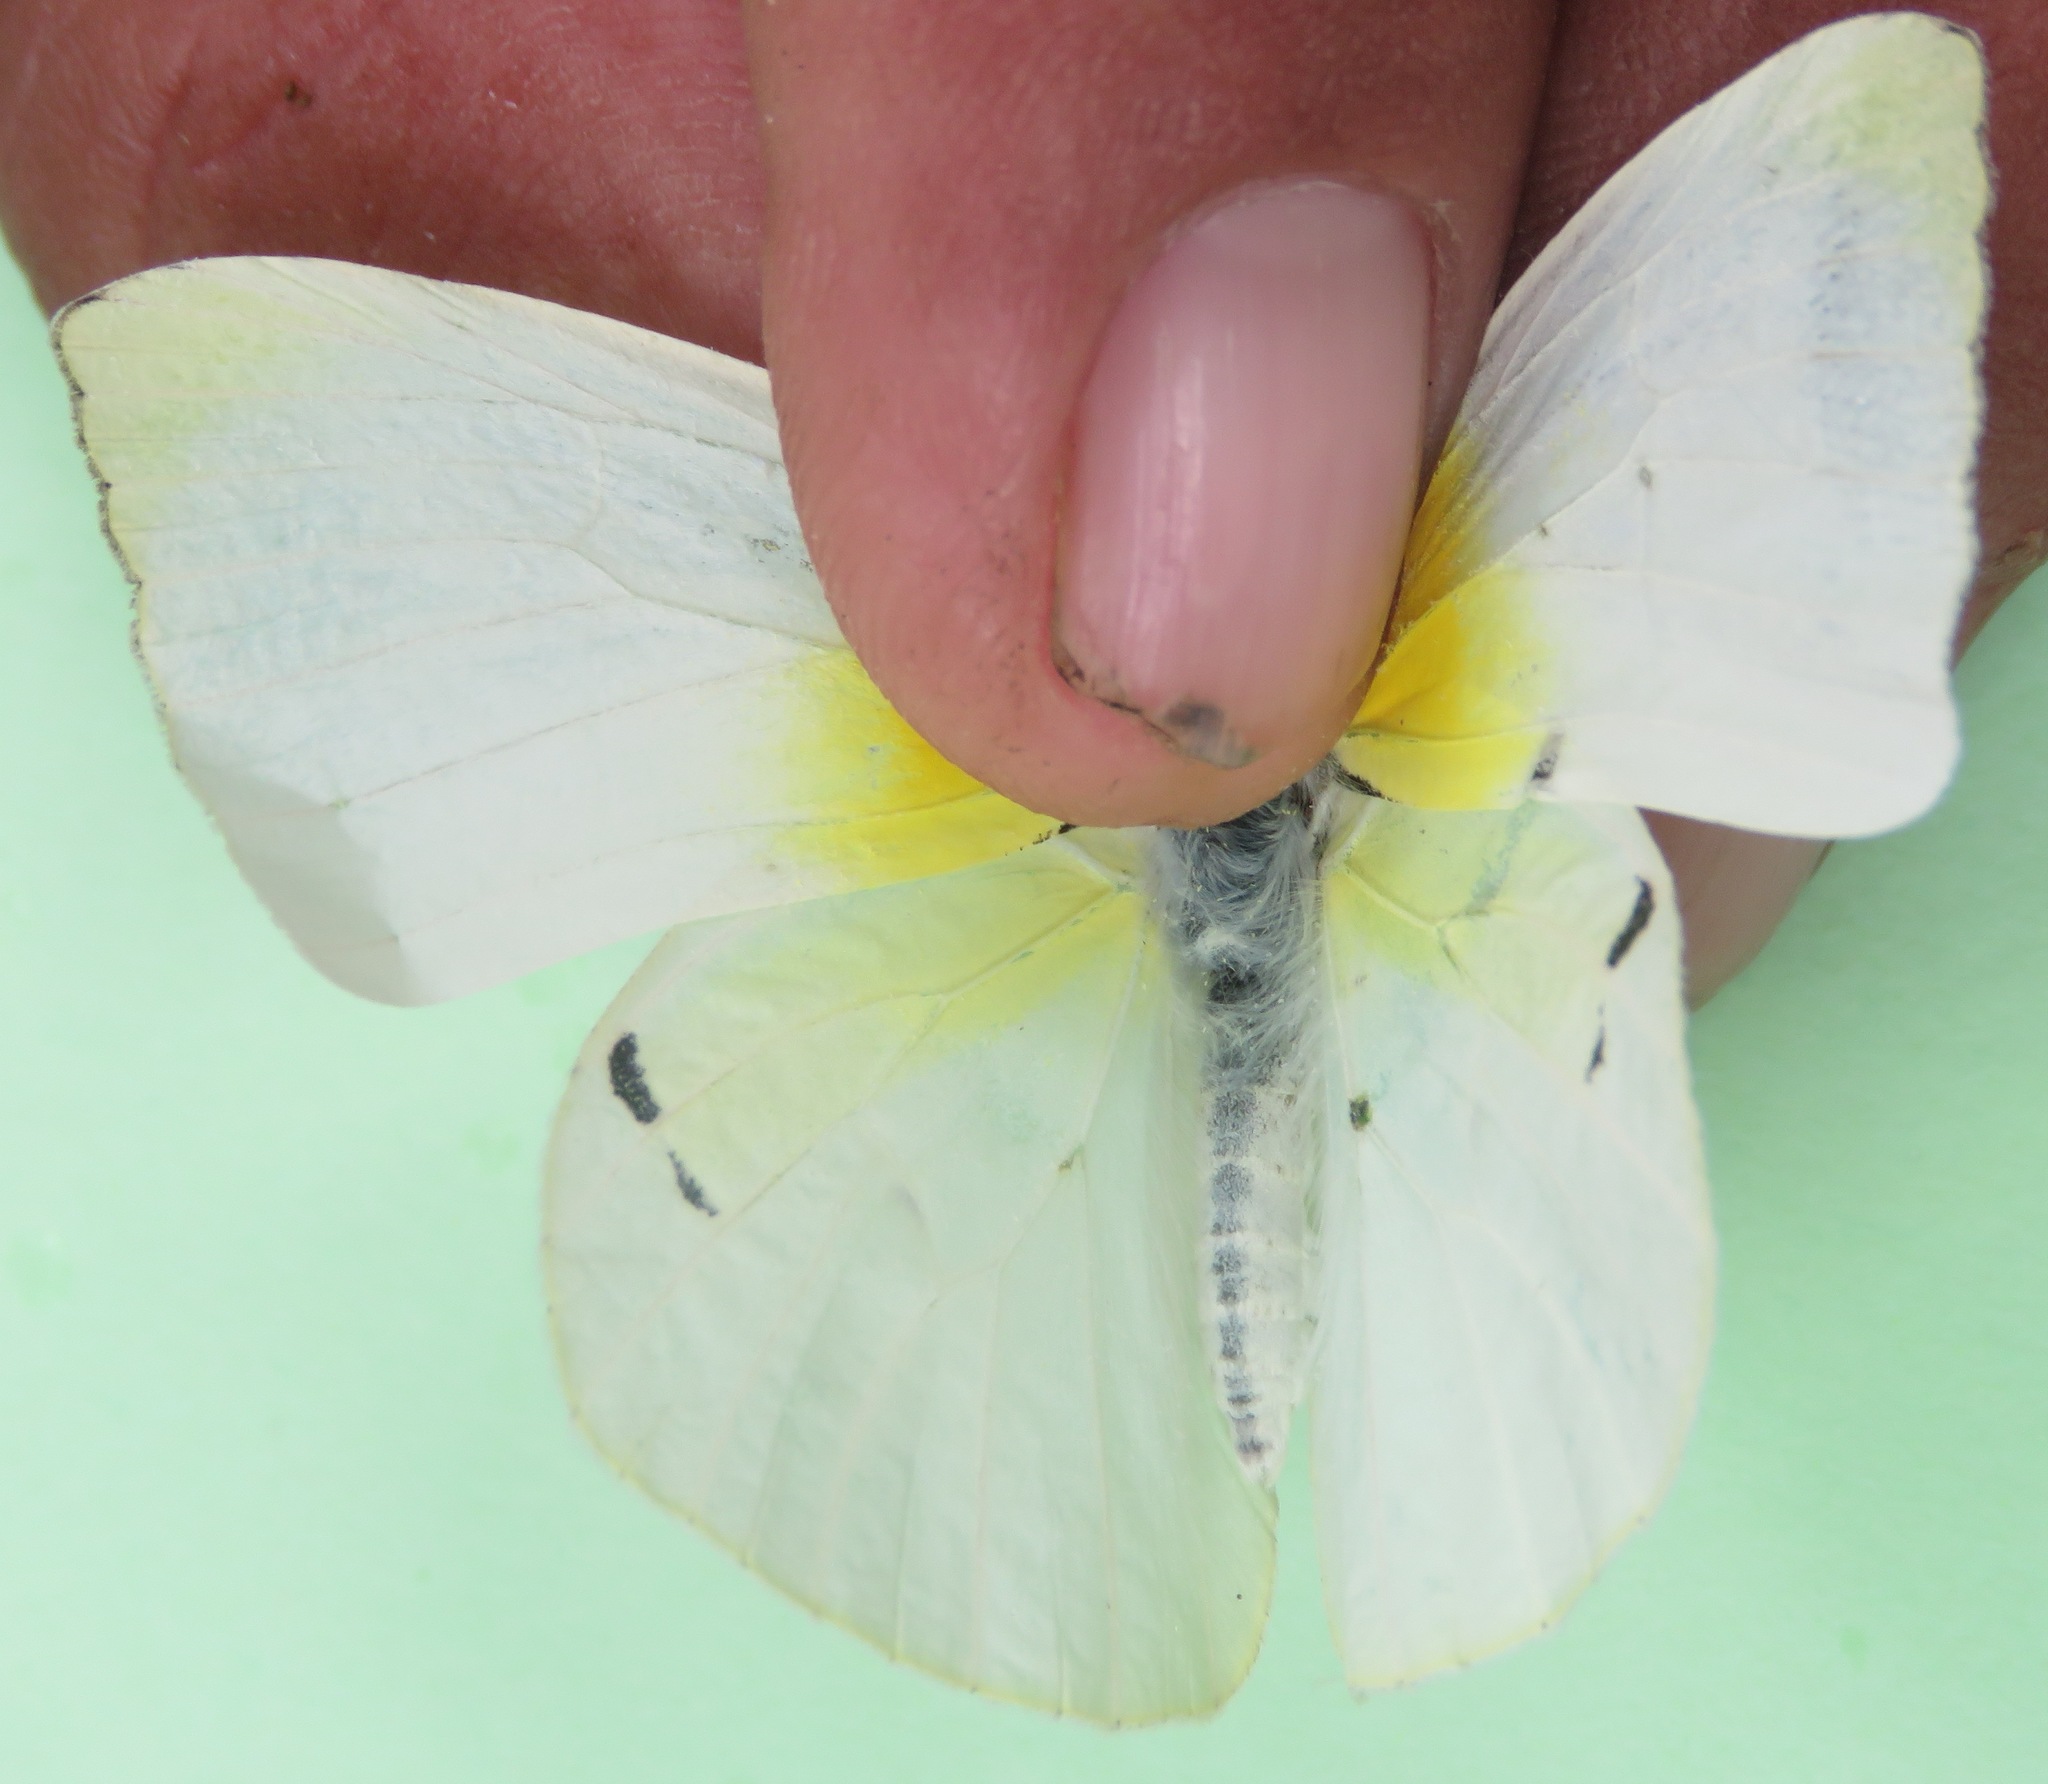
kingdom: Animalia
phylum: Arthropoda
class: Insecta
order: Lepidoptera
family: Pieridae
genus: Kricogonia
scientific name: Kricogonia lyside
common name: Guayacan sulphur,
